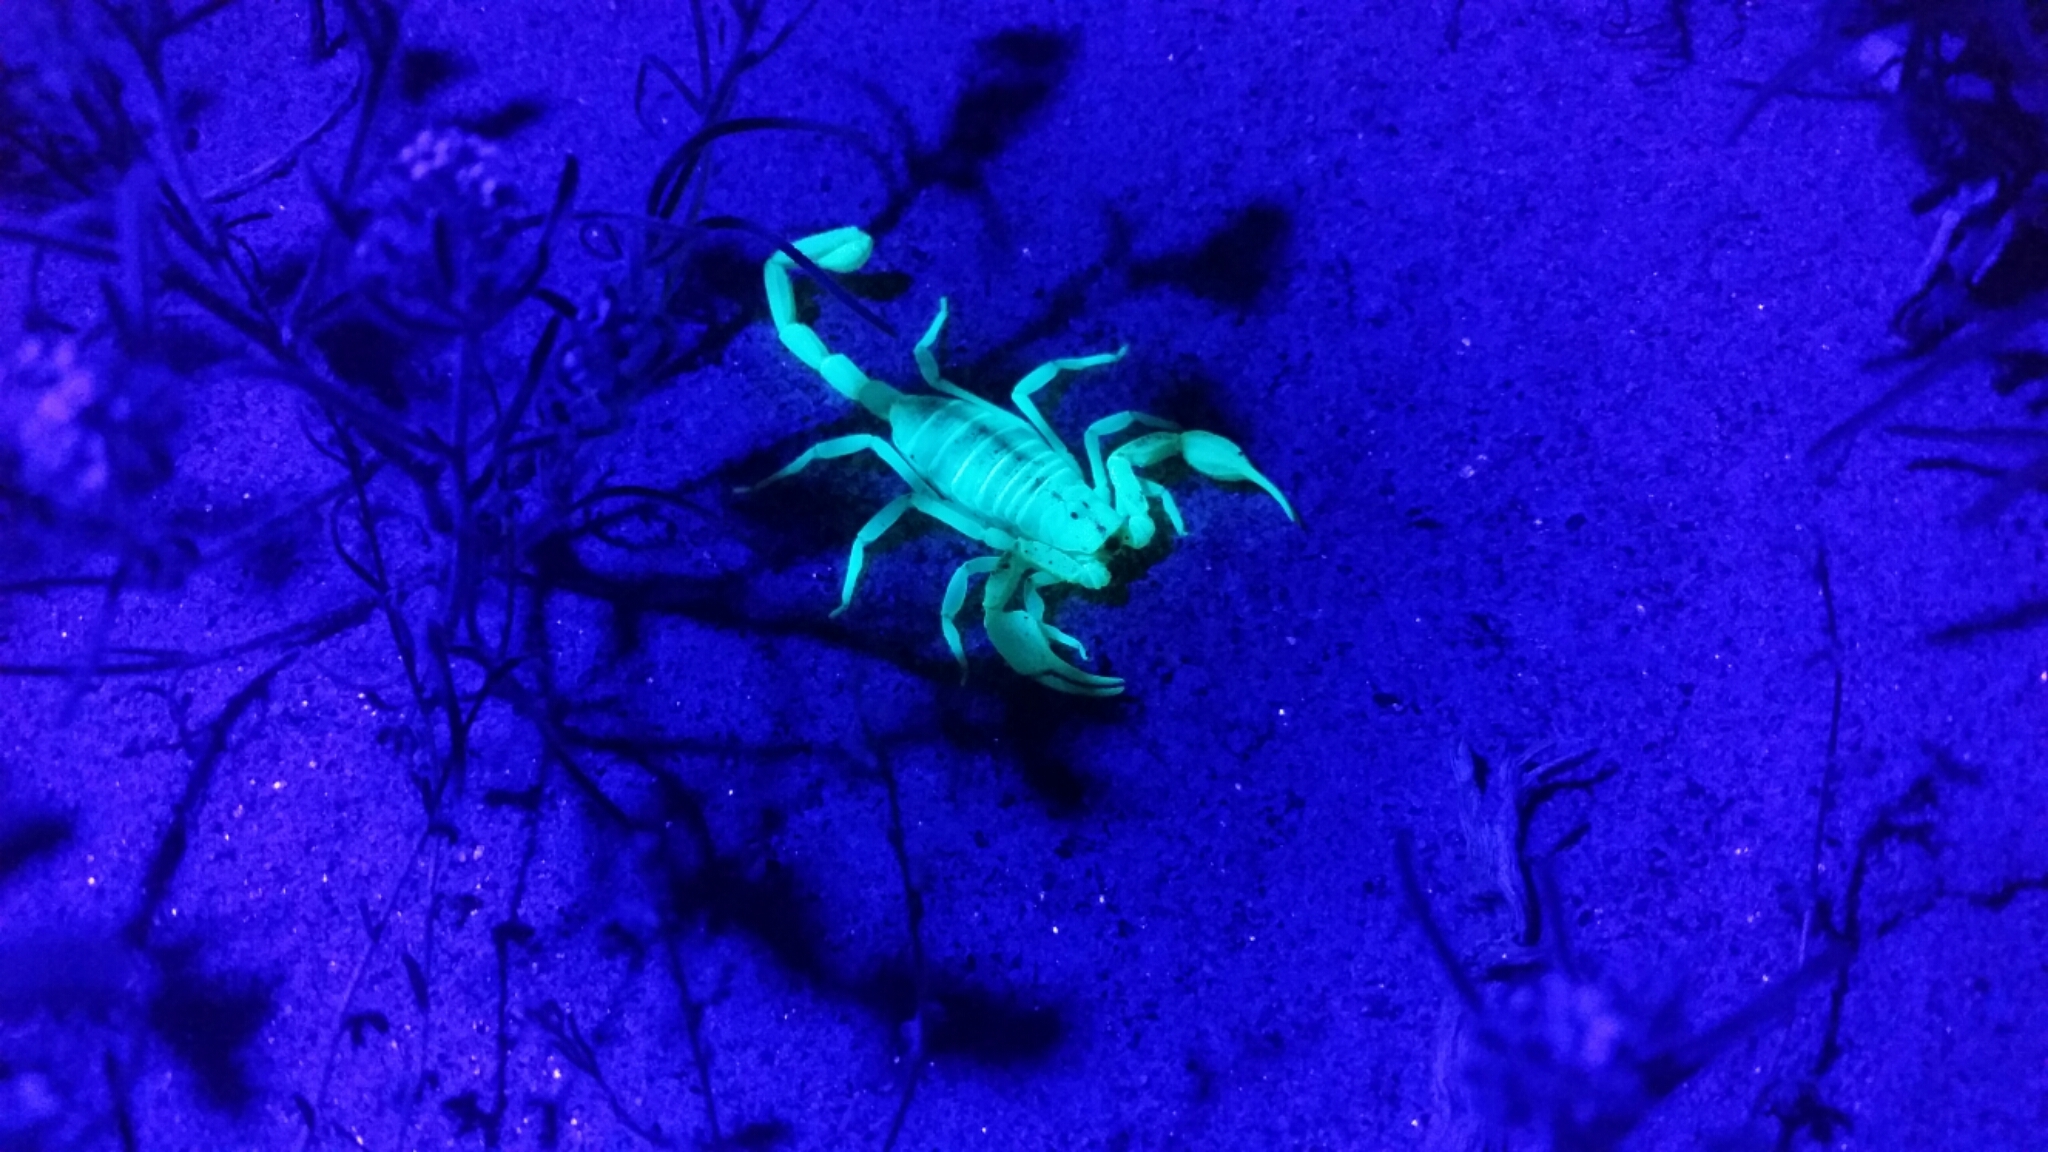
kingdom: Animalia
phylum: Arthropoda
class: Arachnida
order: Scorpiones
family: Vaejovidae
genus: Smeringurus
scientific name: Smeringurus mesaensis
